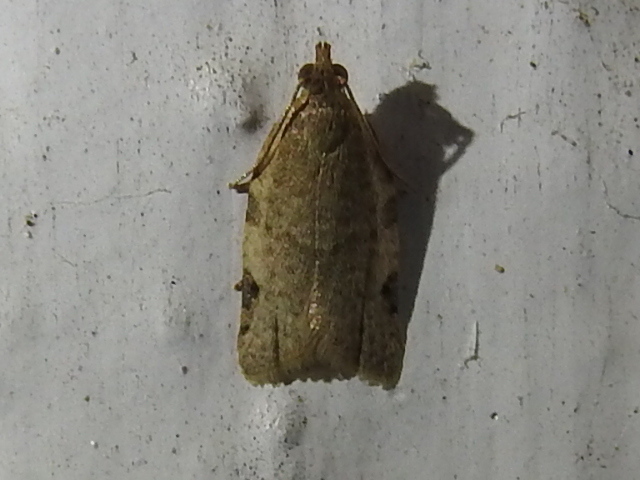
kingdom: Animalia
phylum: Arthropoda
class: Insecta
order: Lepidoptera
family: Tortricidae
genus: Clepsis
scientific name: Clepsis virescana
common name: Greenish apple moth
